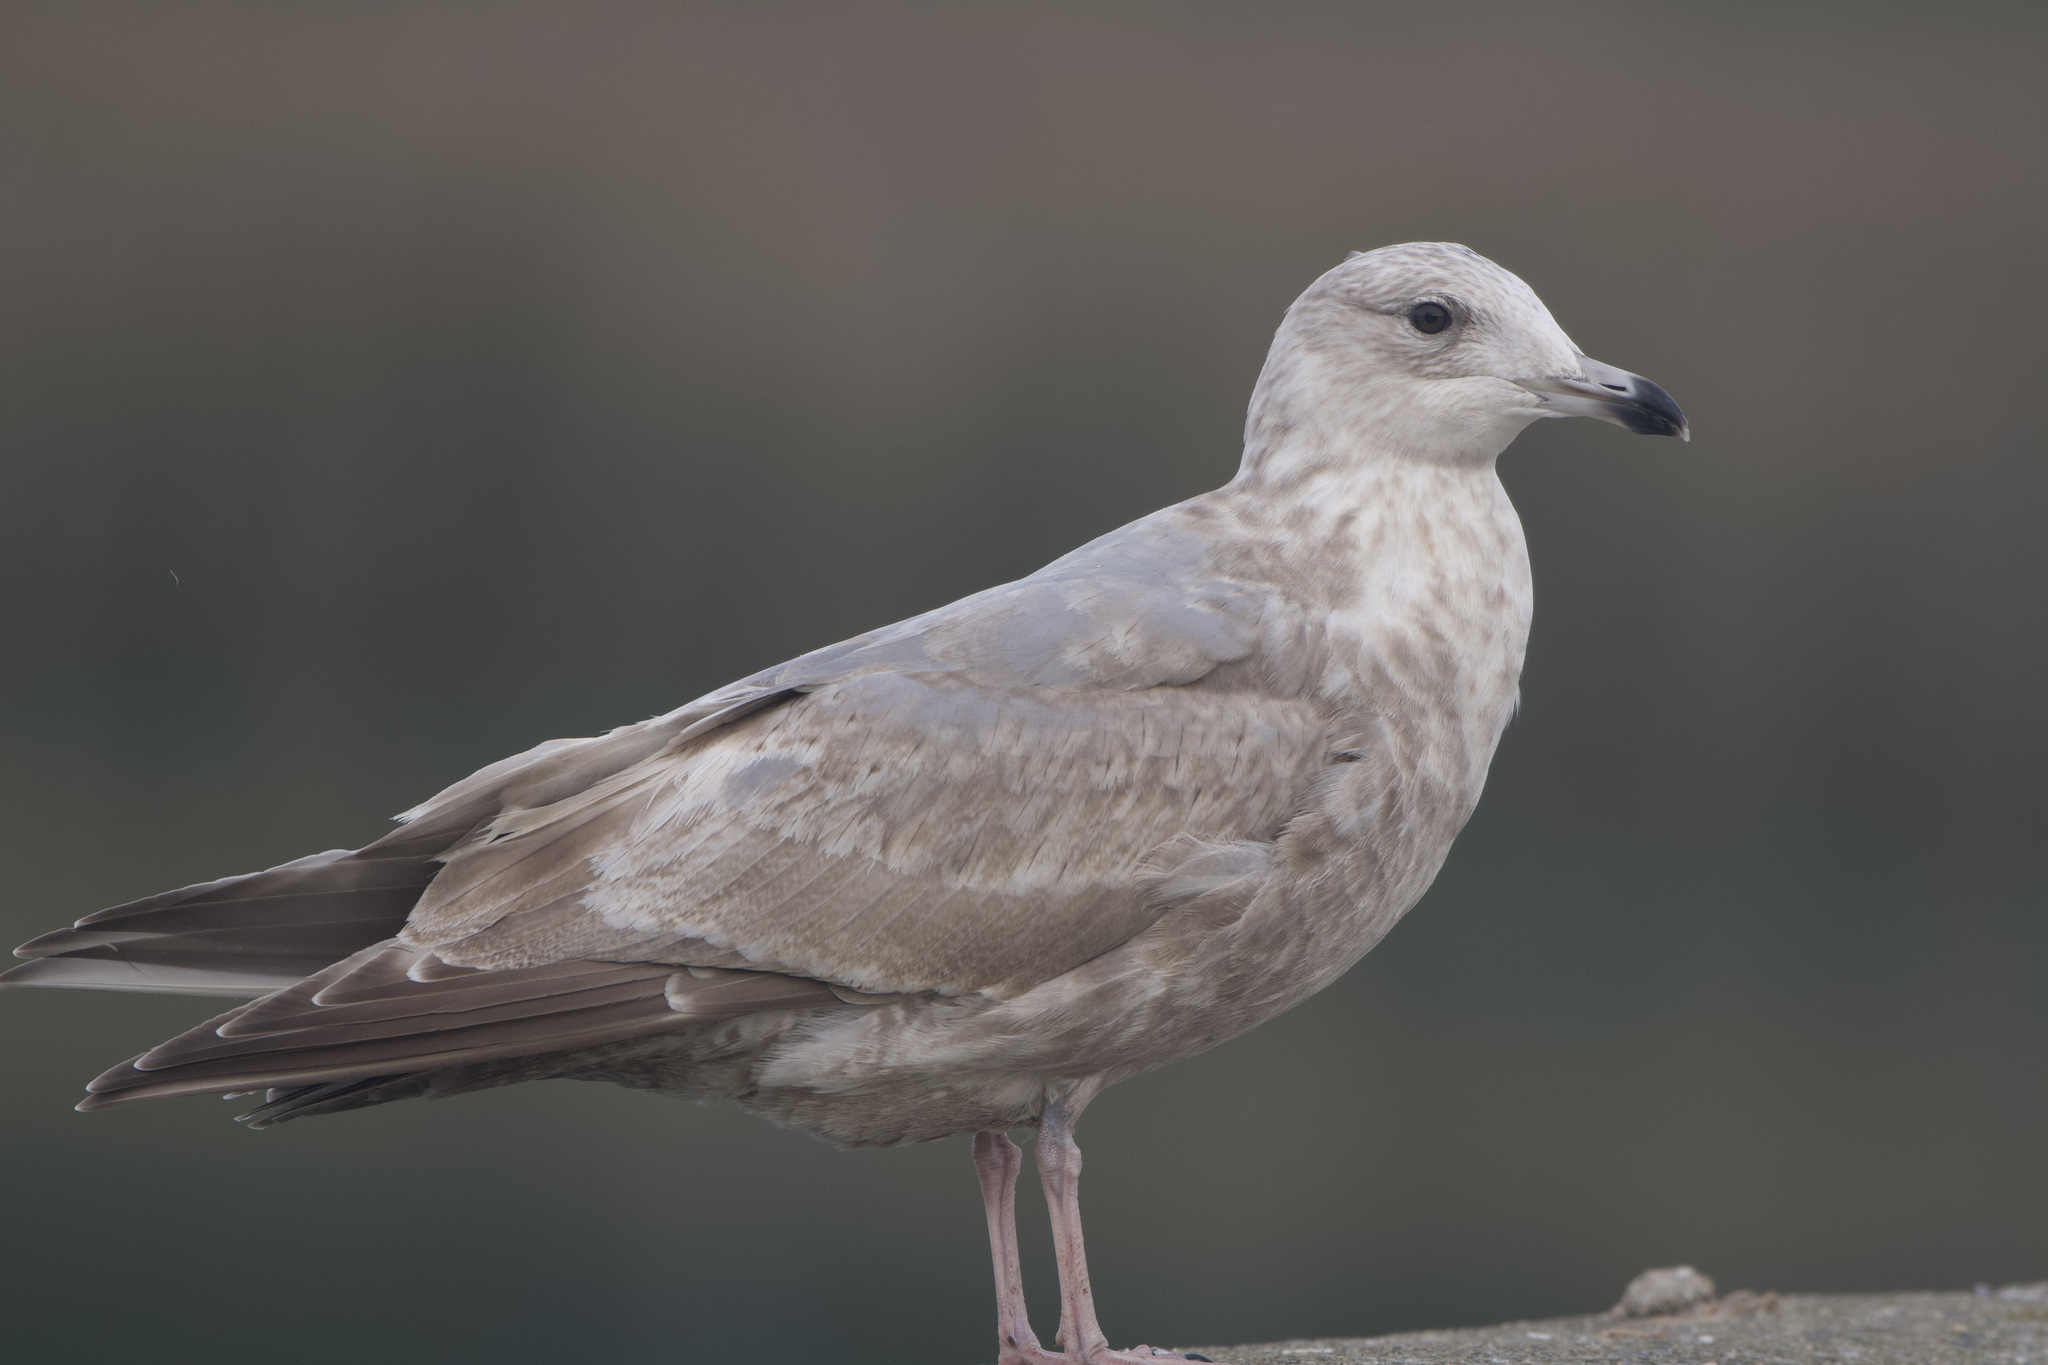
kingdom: Animalia
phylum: Chordata
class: Aves
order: Charadriiformes
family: Laridae
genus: Larus
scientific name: Larus
